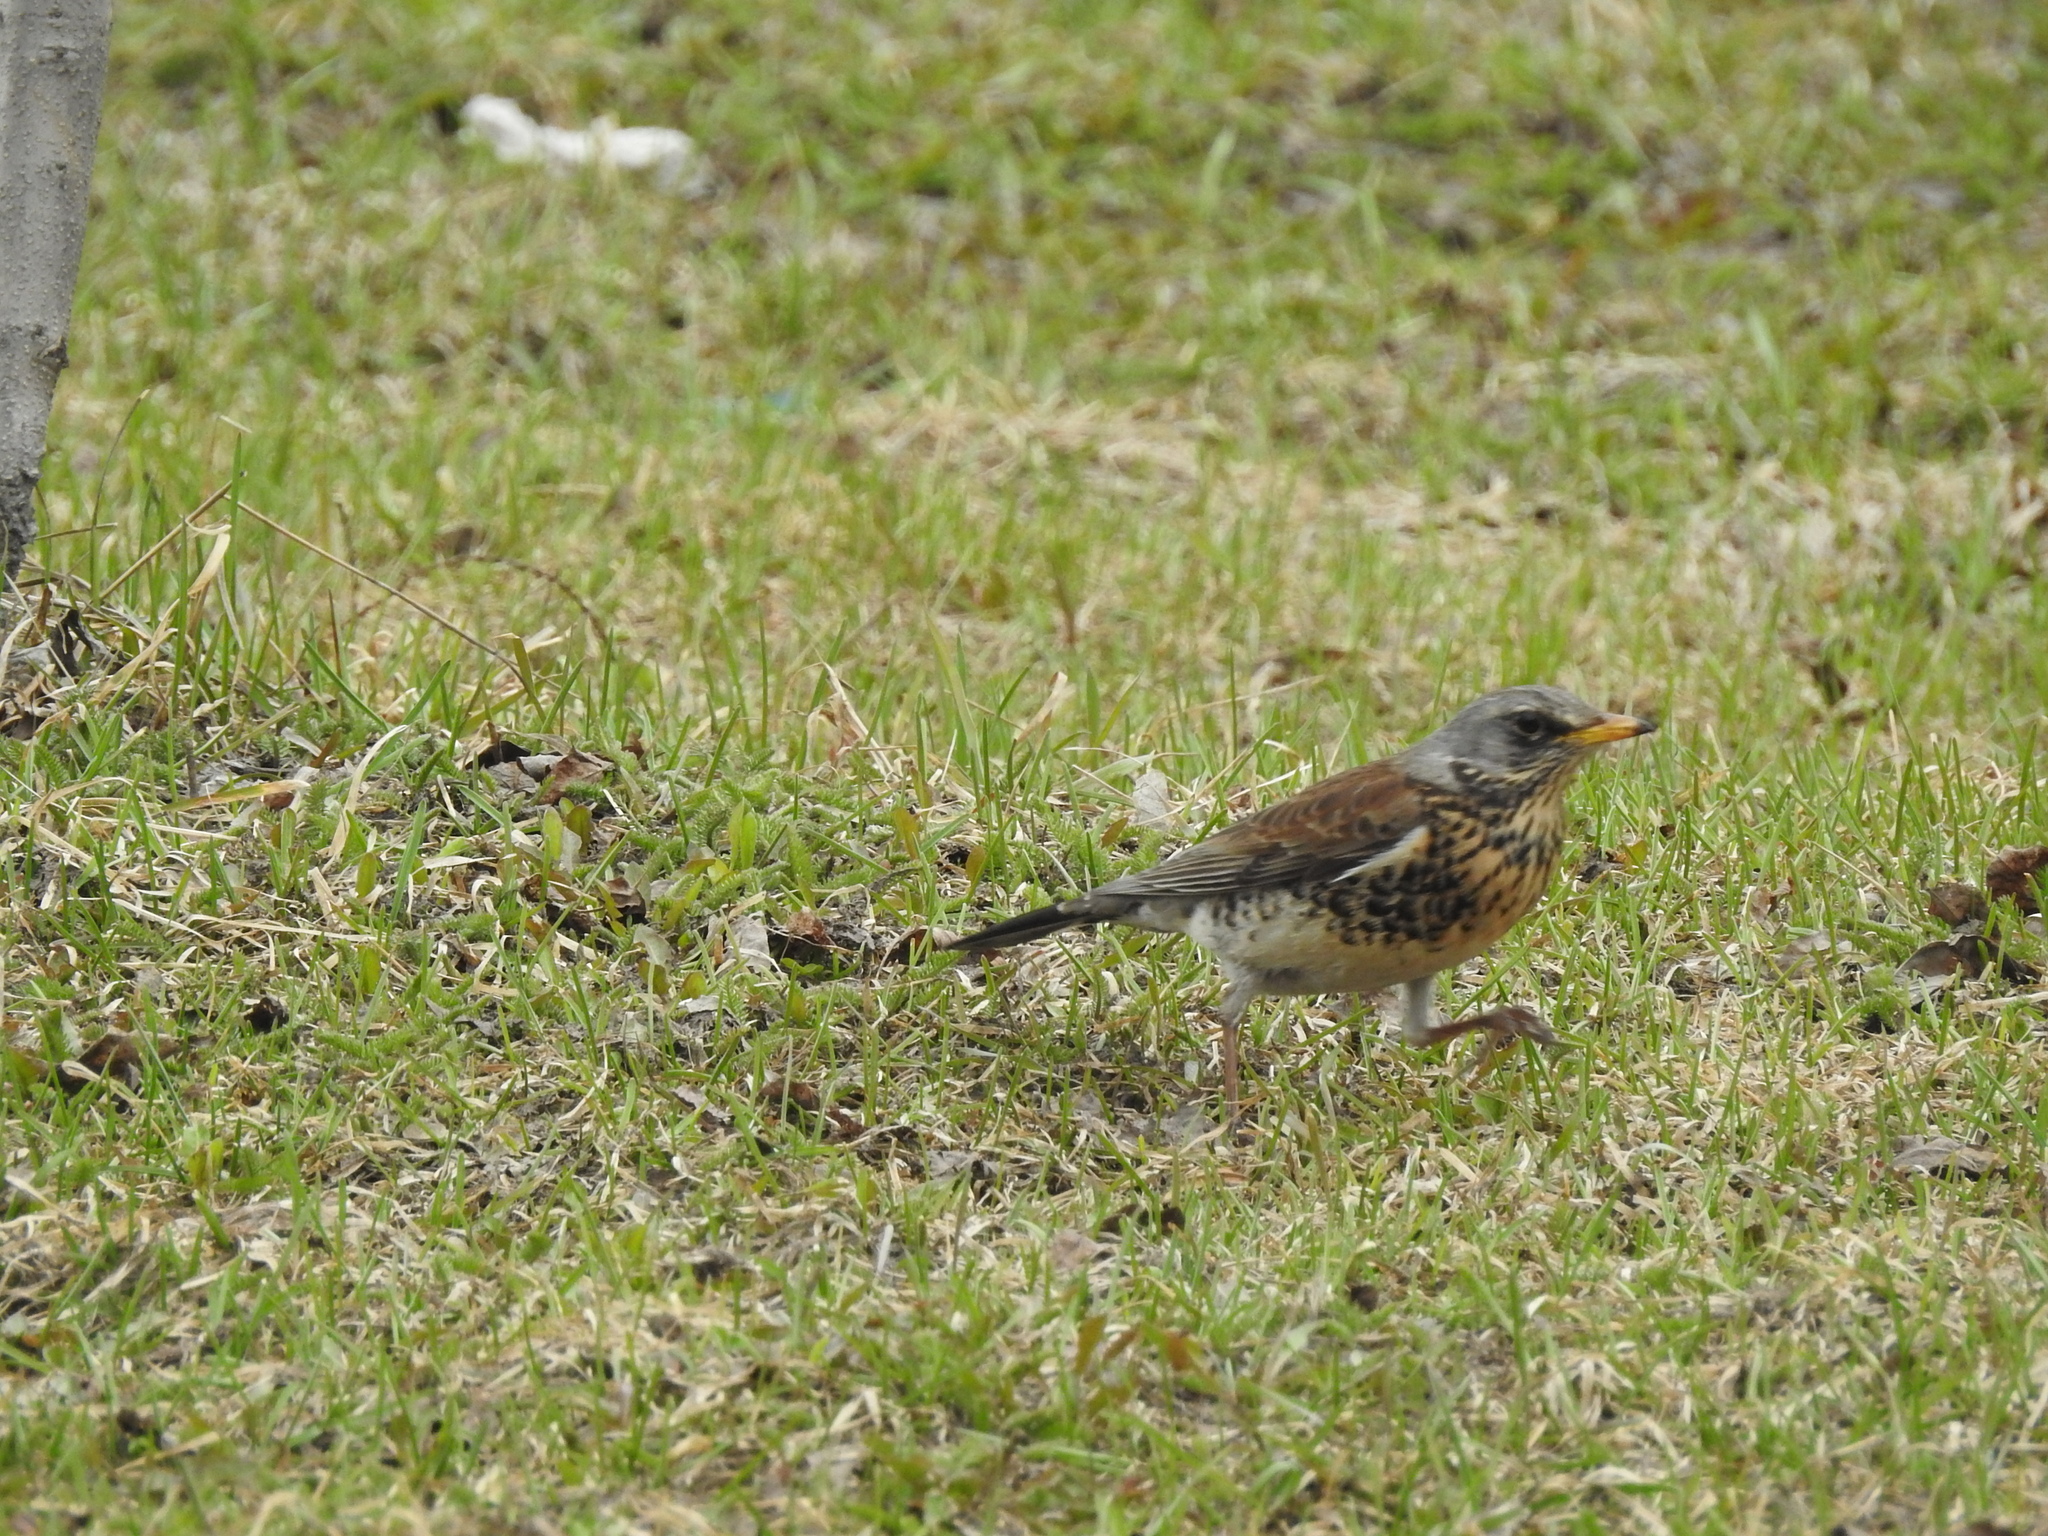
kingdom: Animalia
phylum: Chordata
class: Aves
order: Passeriformes
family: Turdidae
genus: Turdus
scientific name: Turdus pilaris
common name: Fieldfare
